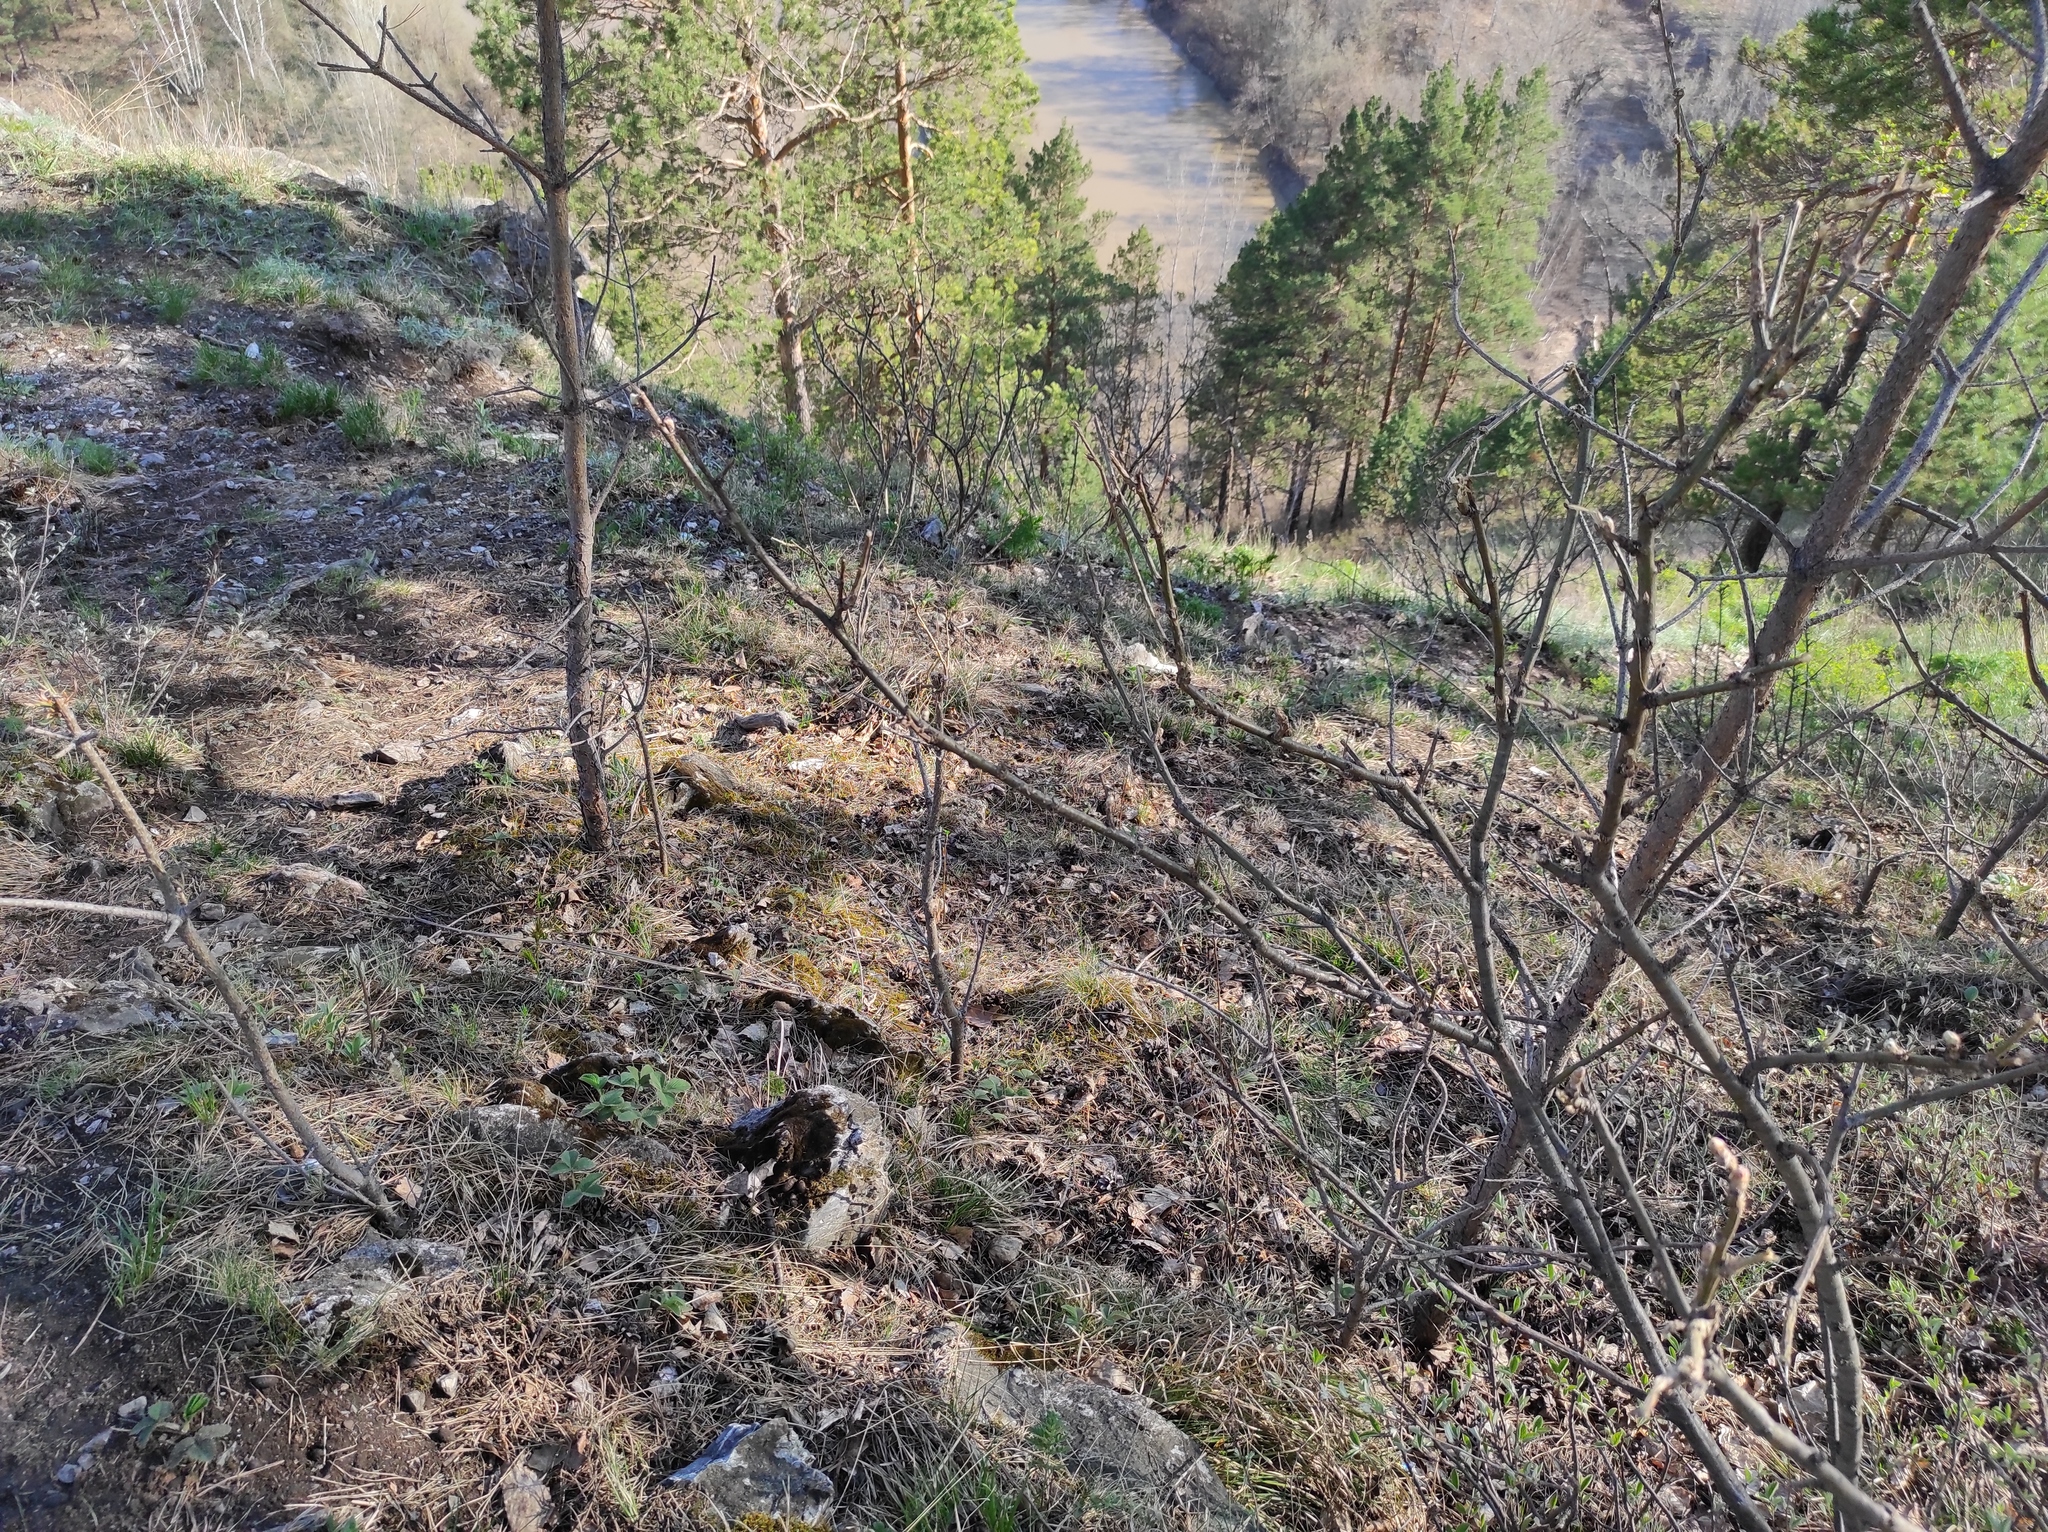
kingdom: Plantae
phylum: Tracheophyta
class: Pinopsida
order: Pinales
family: Pinaceae
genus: Pinus
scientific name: Pinus sylvestris
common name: Scots pine
